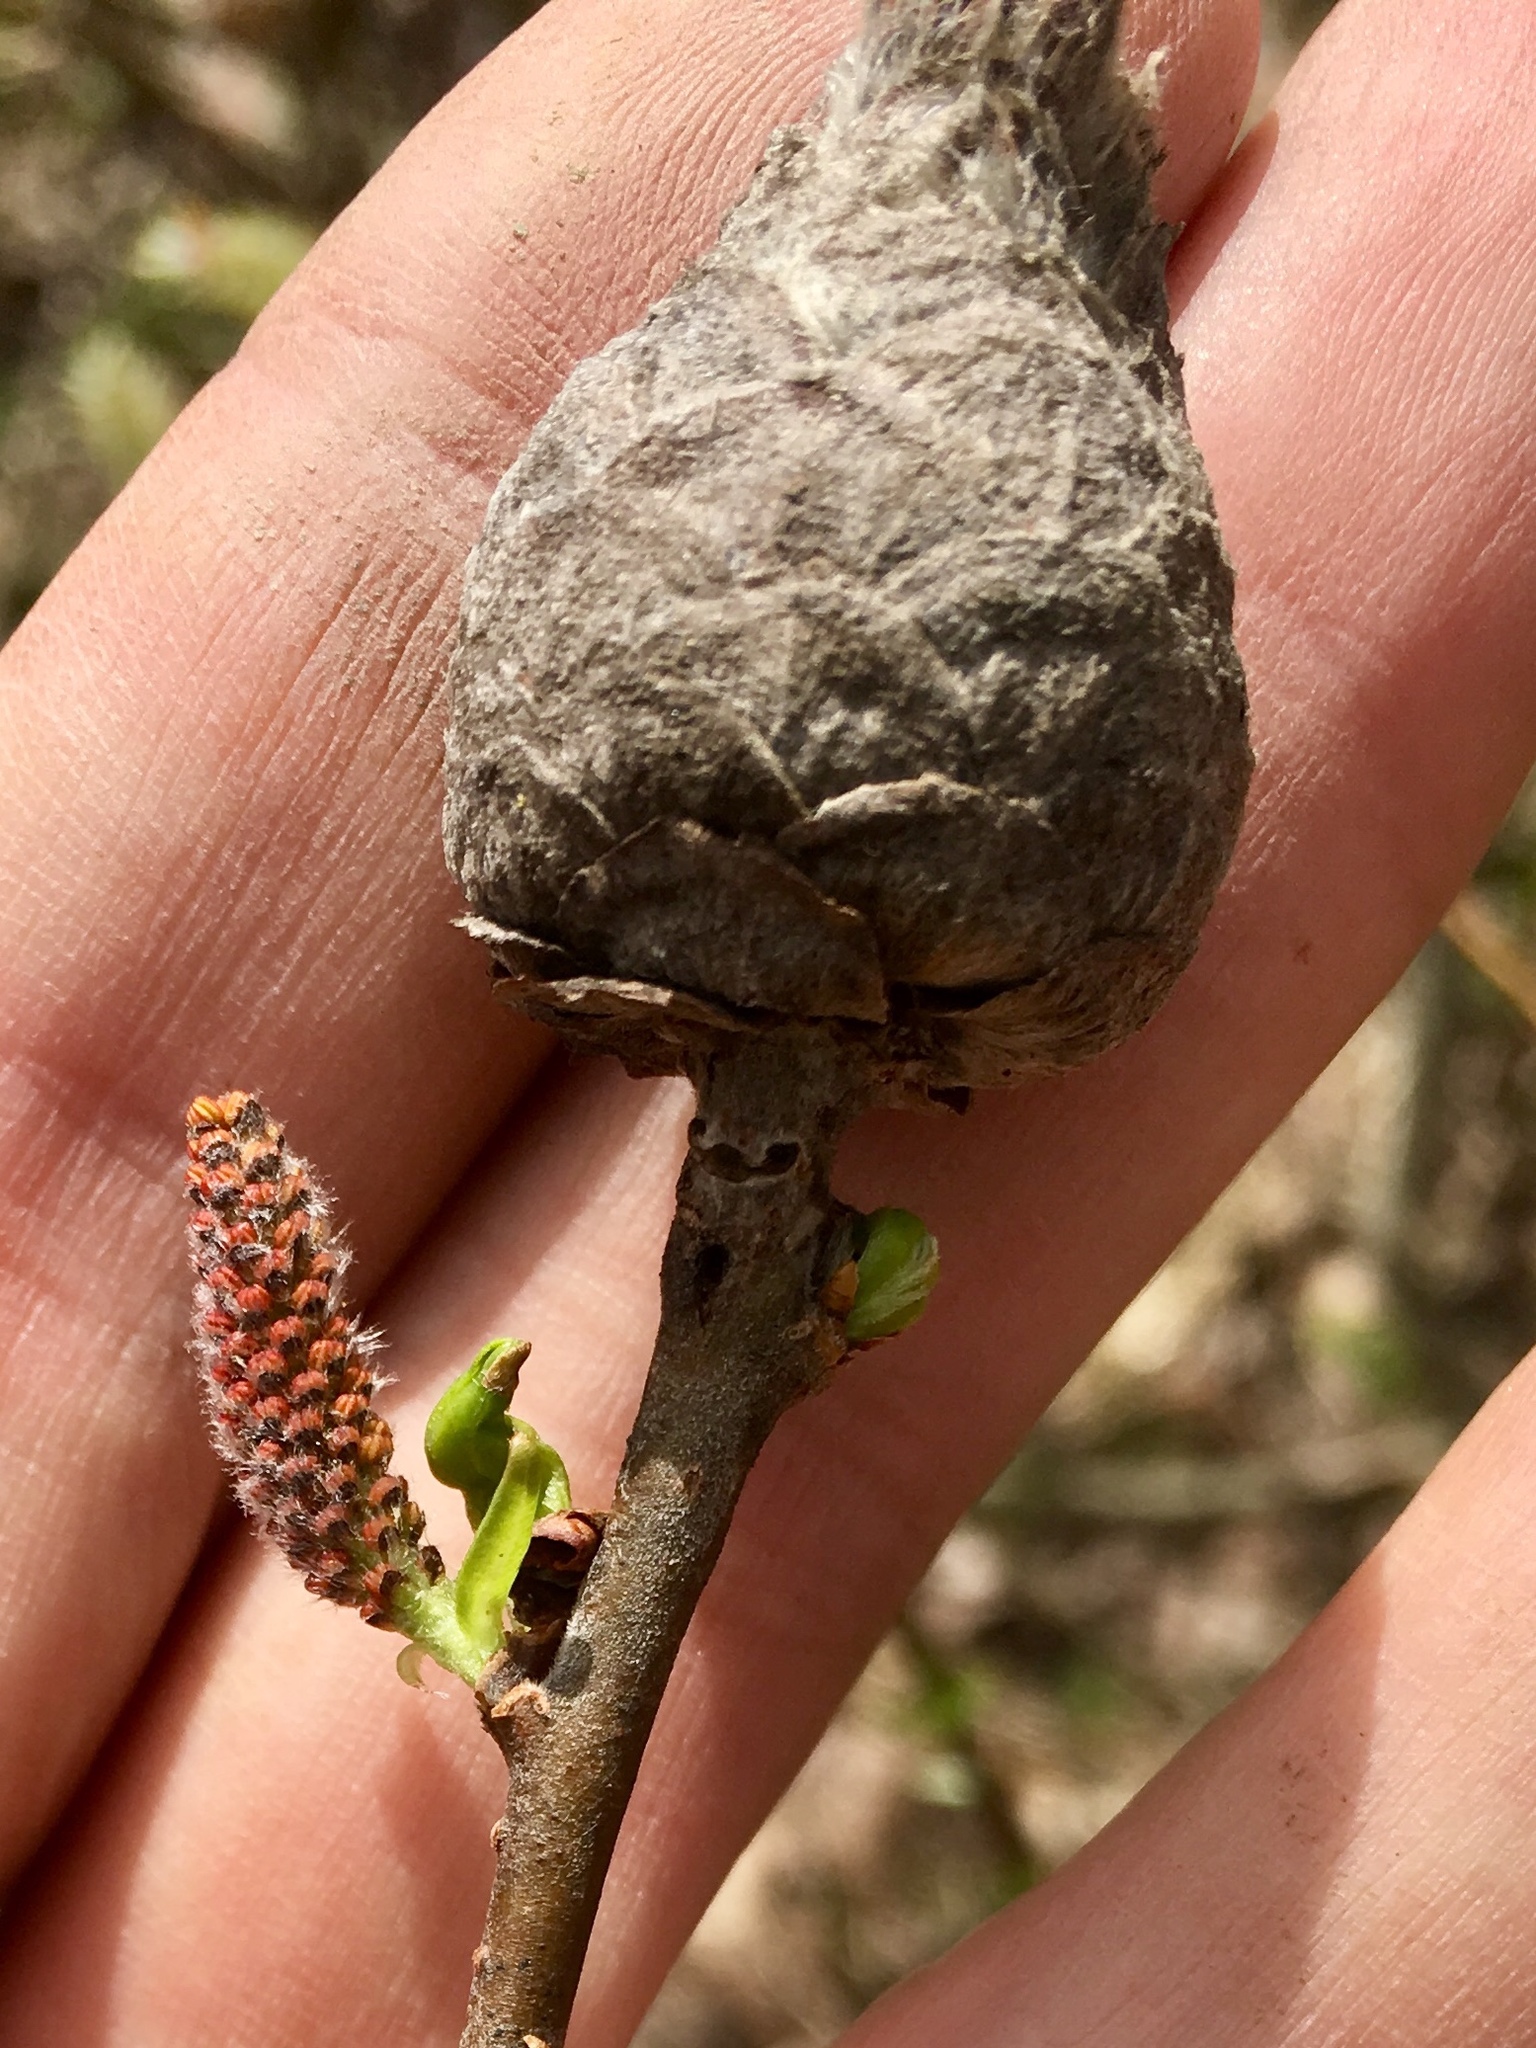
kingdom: Animalia
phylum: Arthropoda
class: Insecta
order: Diptera
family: Cecidomyiidae
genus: Rabdophaga
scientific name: Rabdophaga strobiloides
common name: Willow pinecone gall midge
